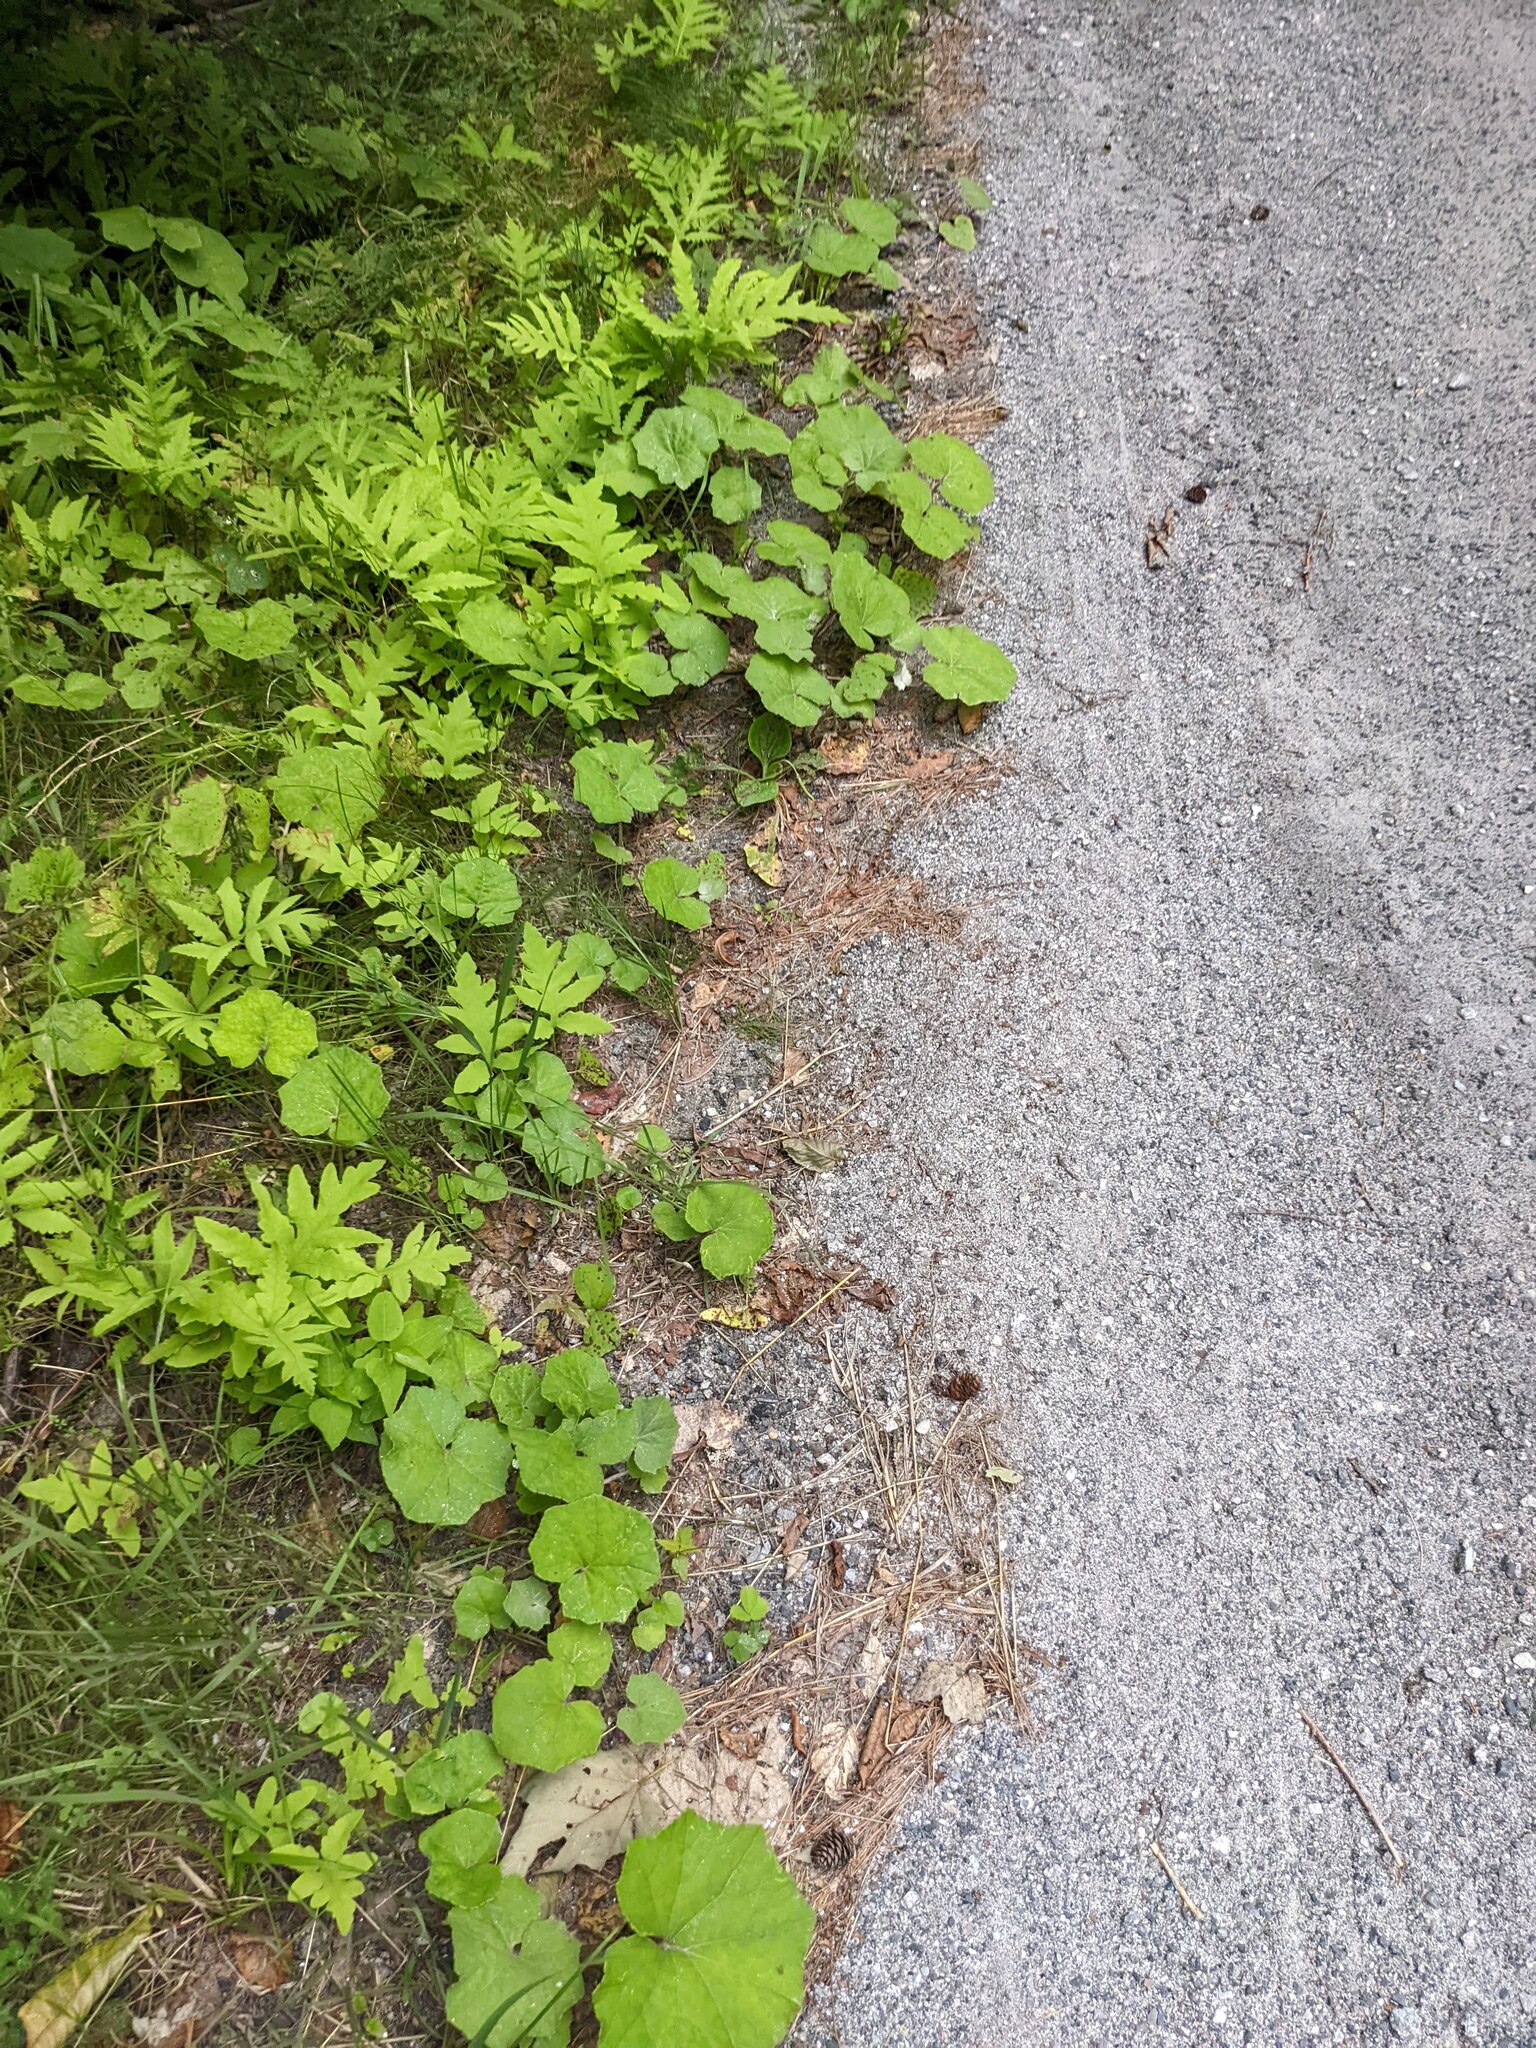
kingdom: Plantae
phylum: Tracheophyta
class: Magnoliopsida
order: Asterales
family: Asteraceae
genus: Tussilago
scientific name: Tussilago farfara
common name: Coltsfoot
